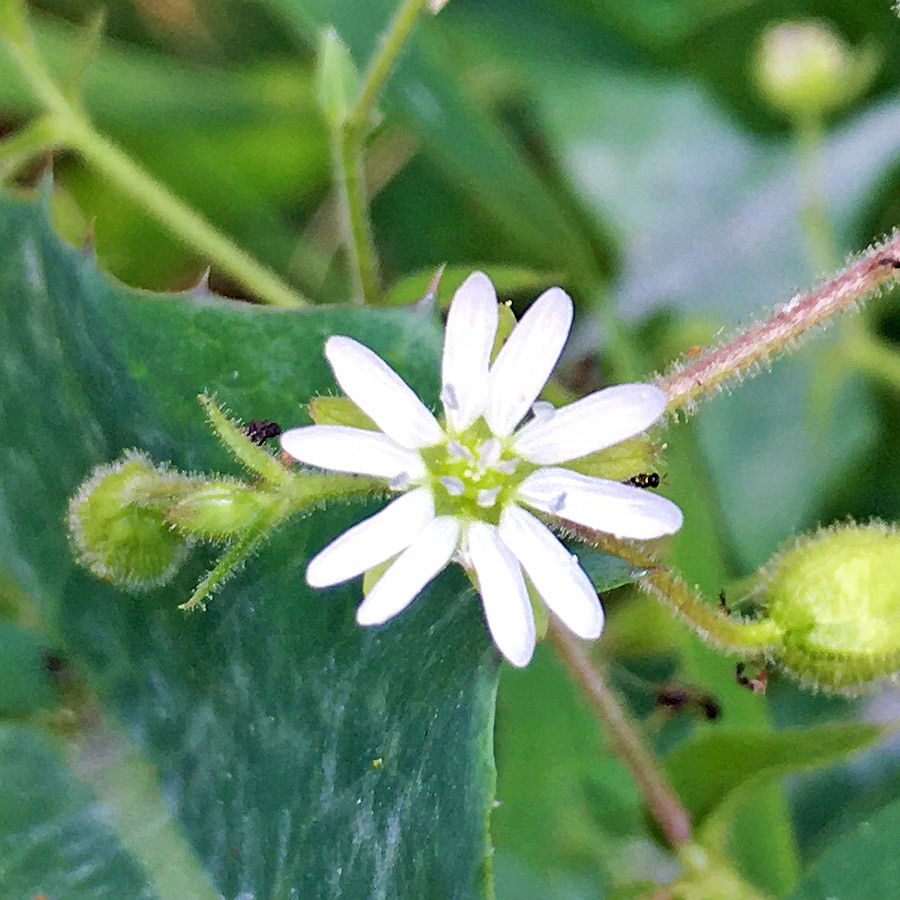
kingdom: Plantae
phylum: Tracheophyta
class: Magnoliopsida
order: Caryophyllales
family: Caryophyllaceae
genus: Stellaria
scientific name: Stellaria aquatica
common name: Water chickweed
